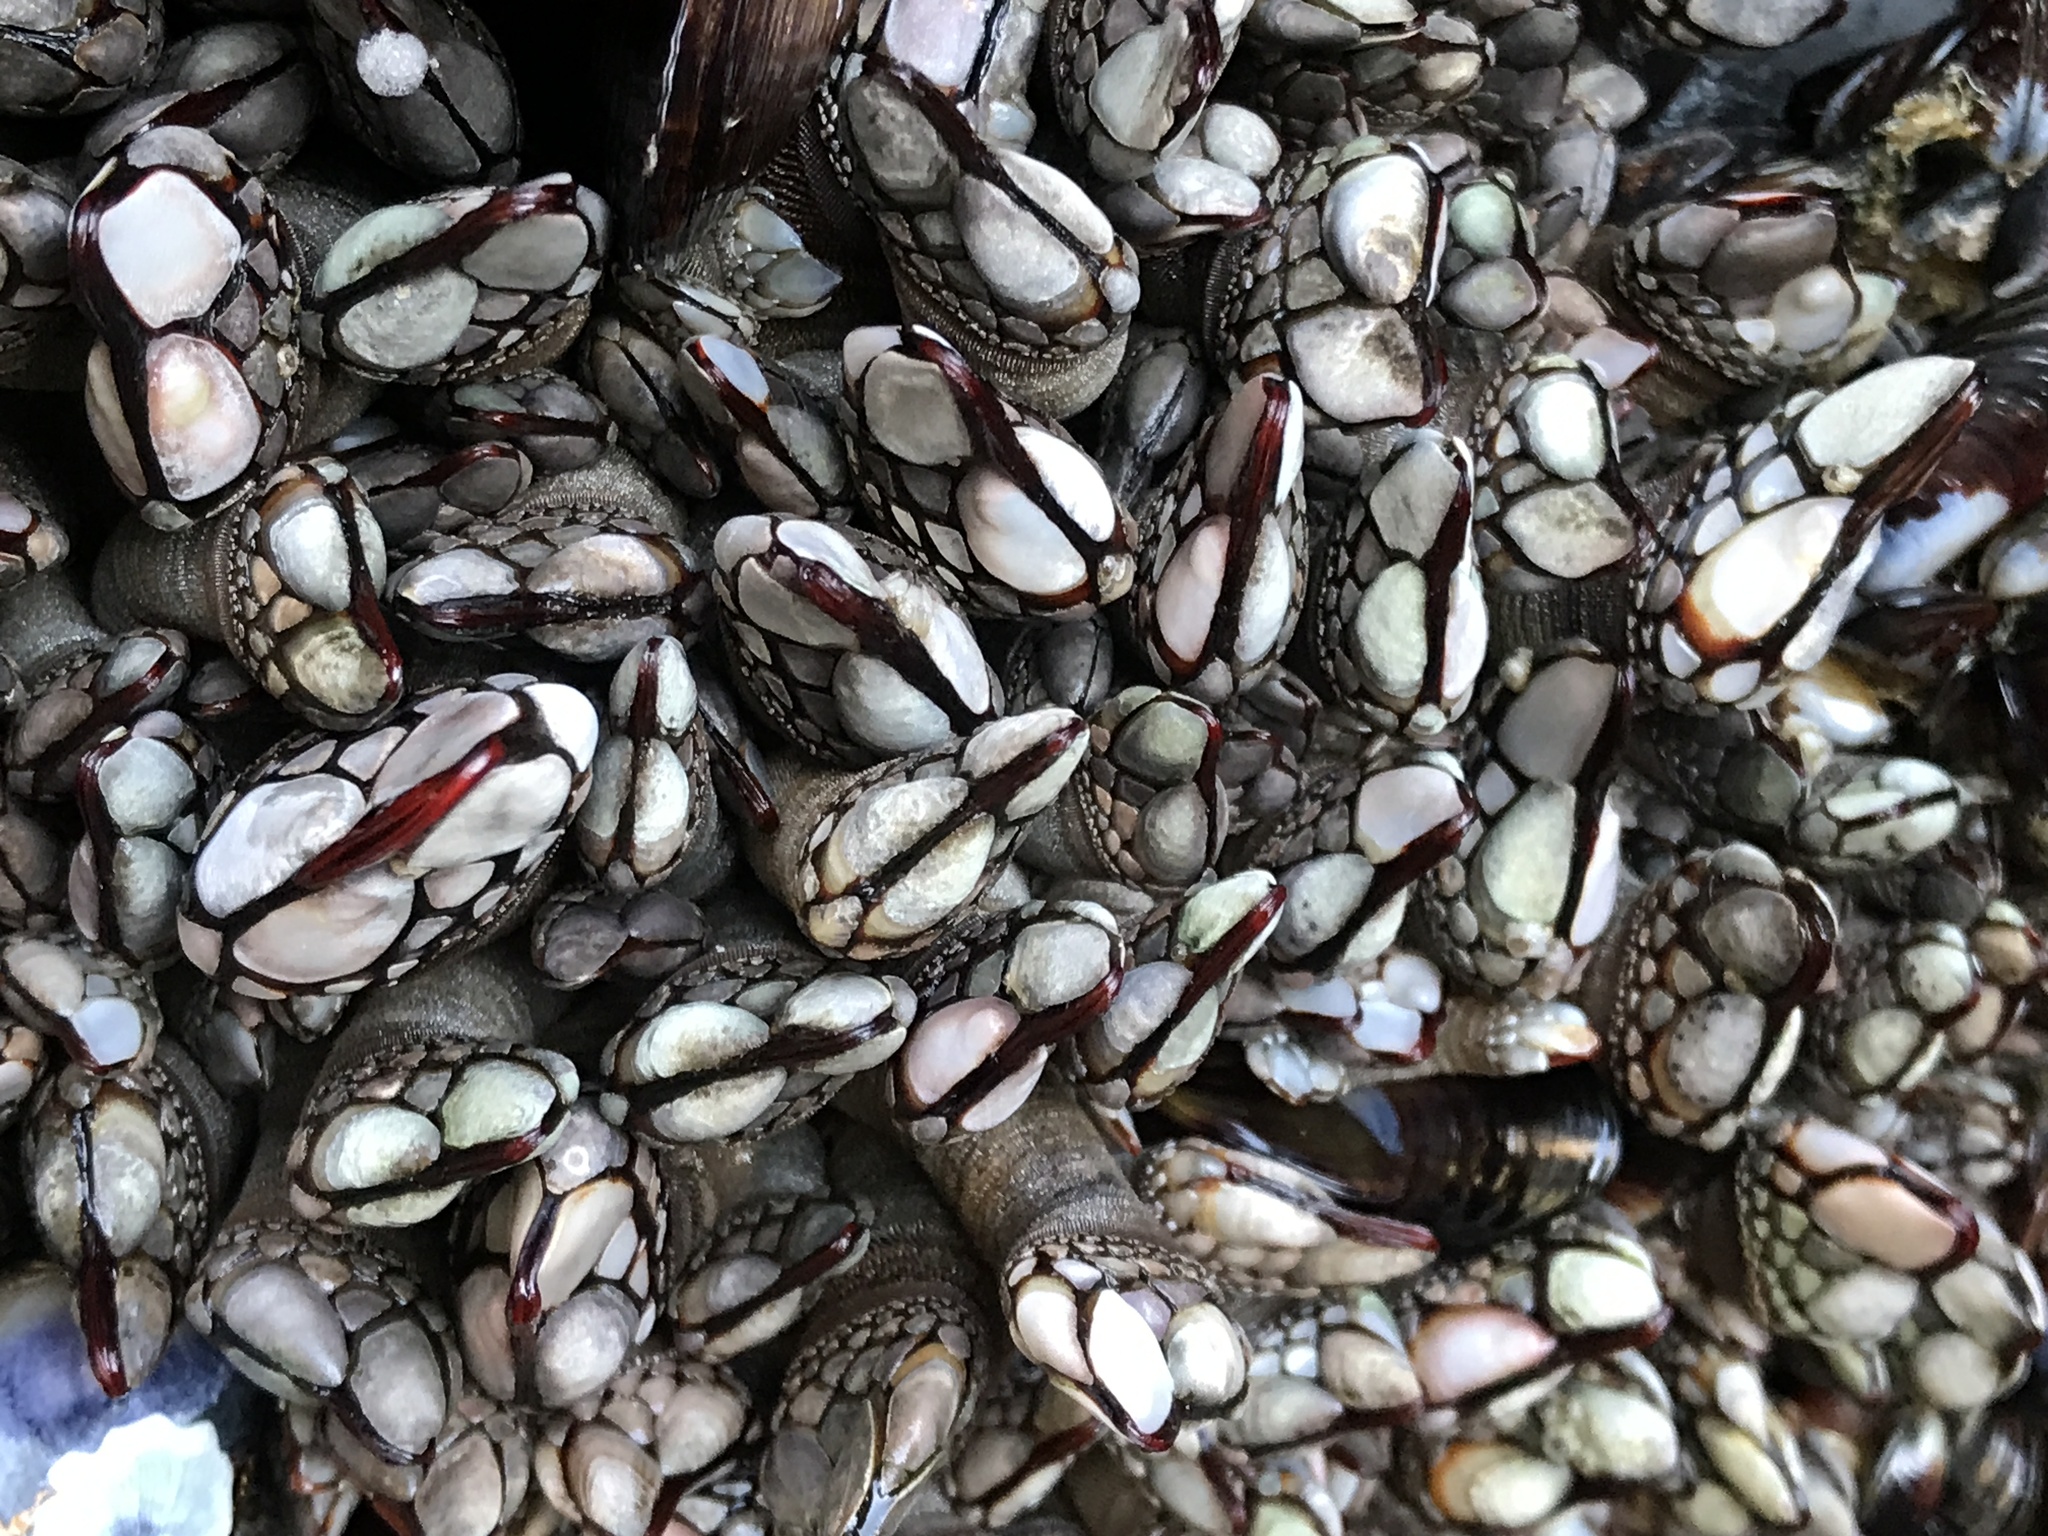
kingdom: Animalia
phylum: Arthropoda
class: Maxillopoda
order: Pedunculata
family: Pollicipedidae
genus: Pollicipes
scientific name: Pollicipes polymerus
